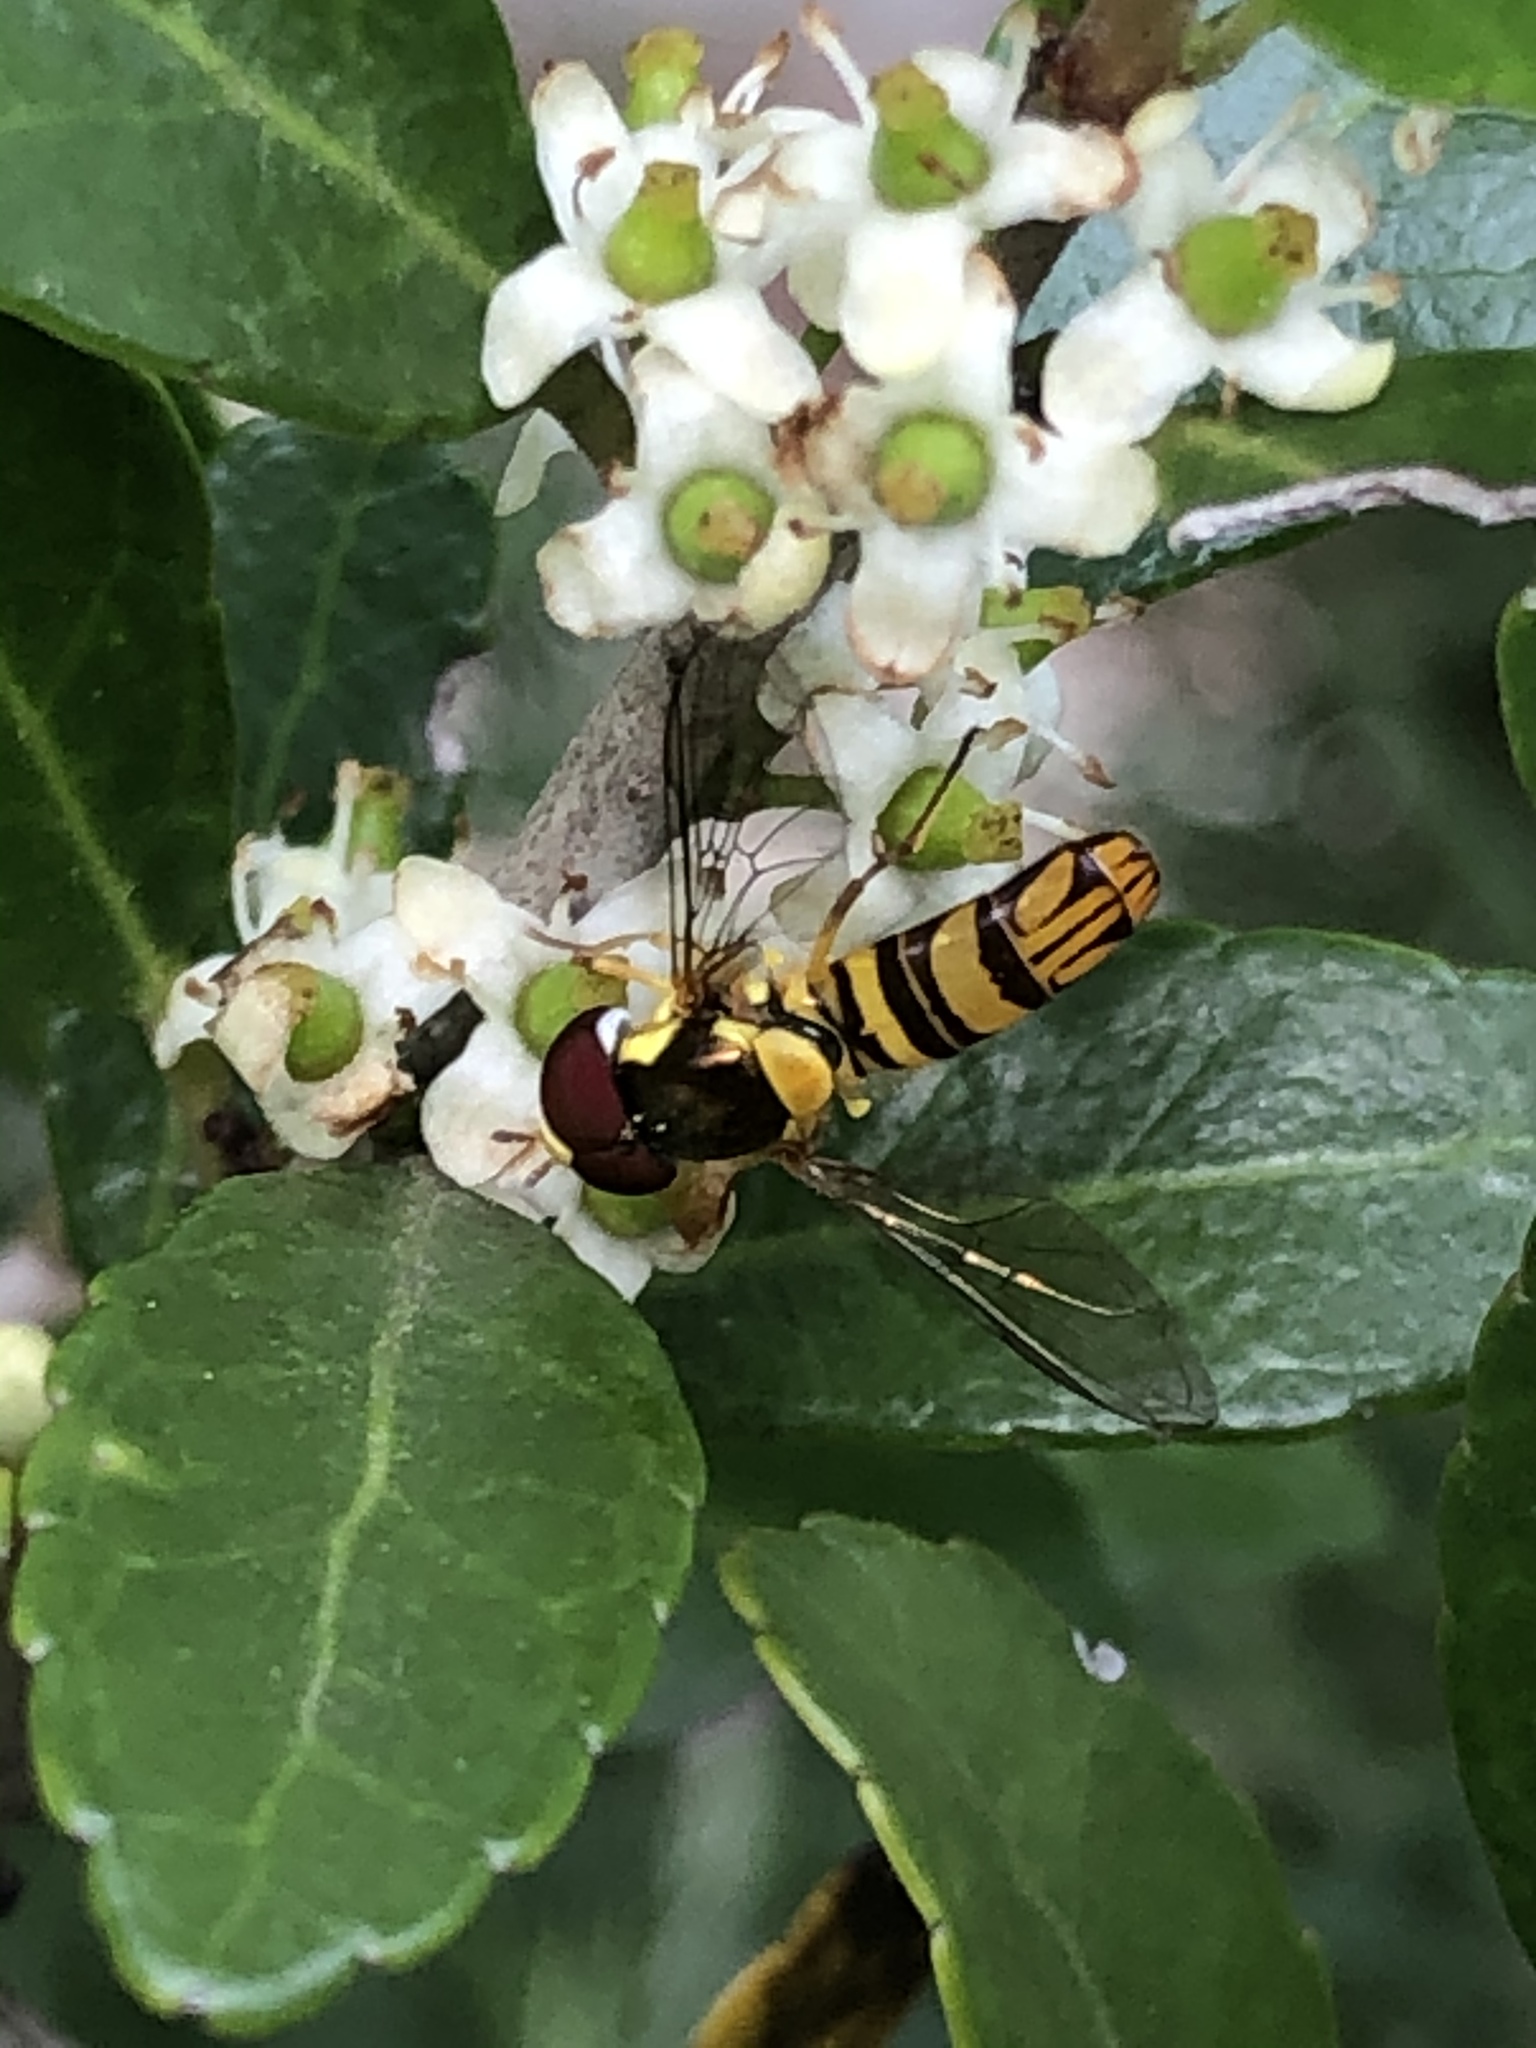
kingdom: Animalia
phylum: Arthropoda
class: Insecta
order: Diptera
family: Syrphidae
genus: Allograpta
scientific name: Allograpta obliqua
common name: Common oblique syrphid
